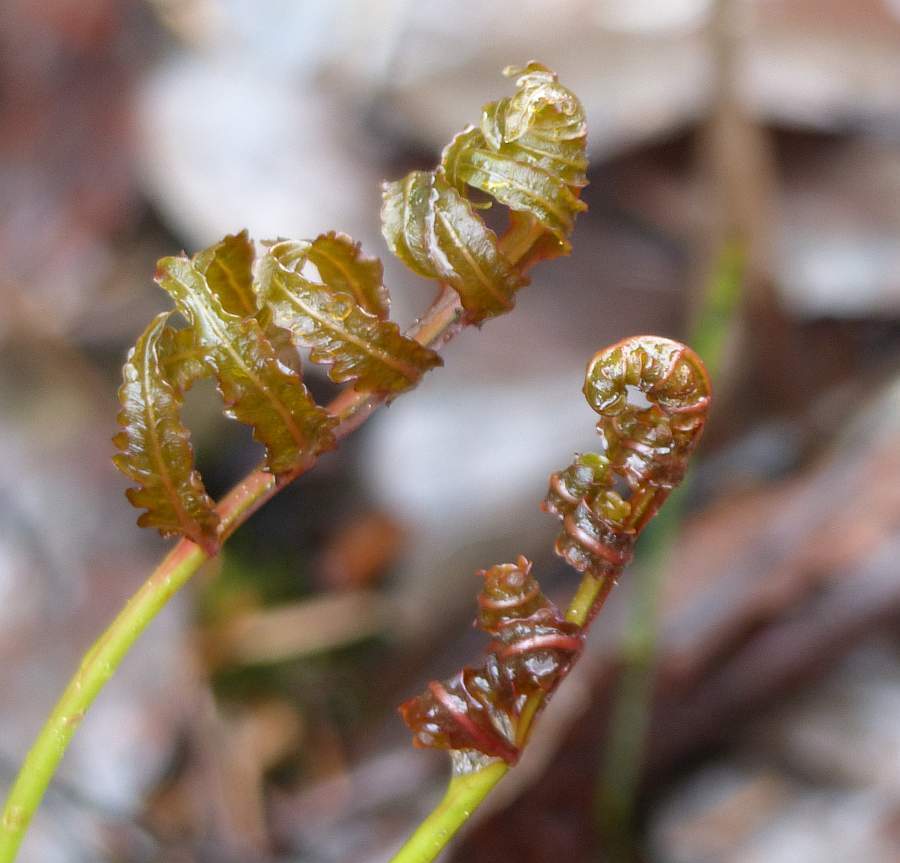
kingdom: Plantae
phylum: Tracheophyta
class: Polypodiopsida
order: Polypodiales
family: Onocleaceae
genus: Onoclea
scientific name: Onoclea sensibilis
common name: Sensitive fern
